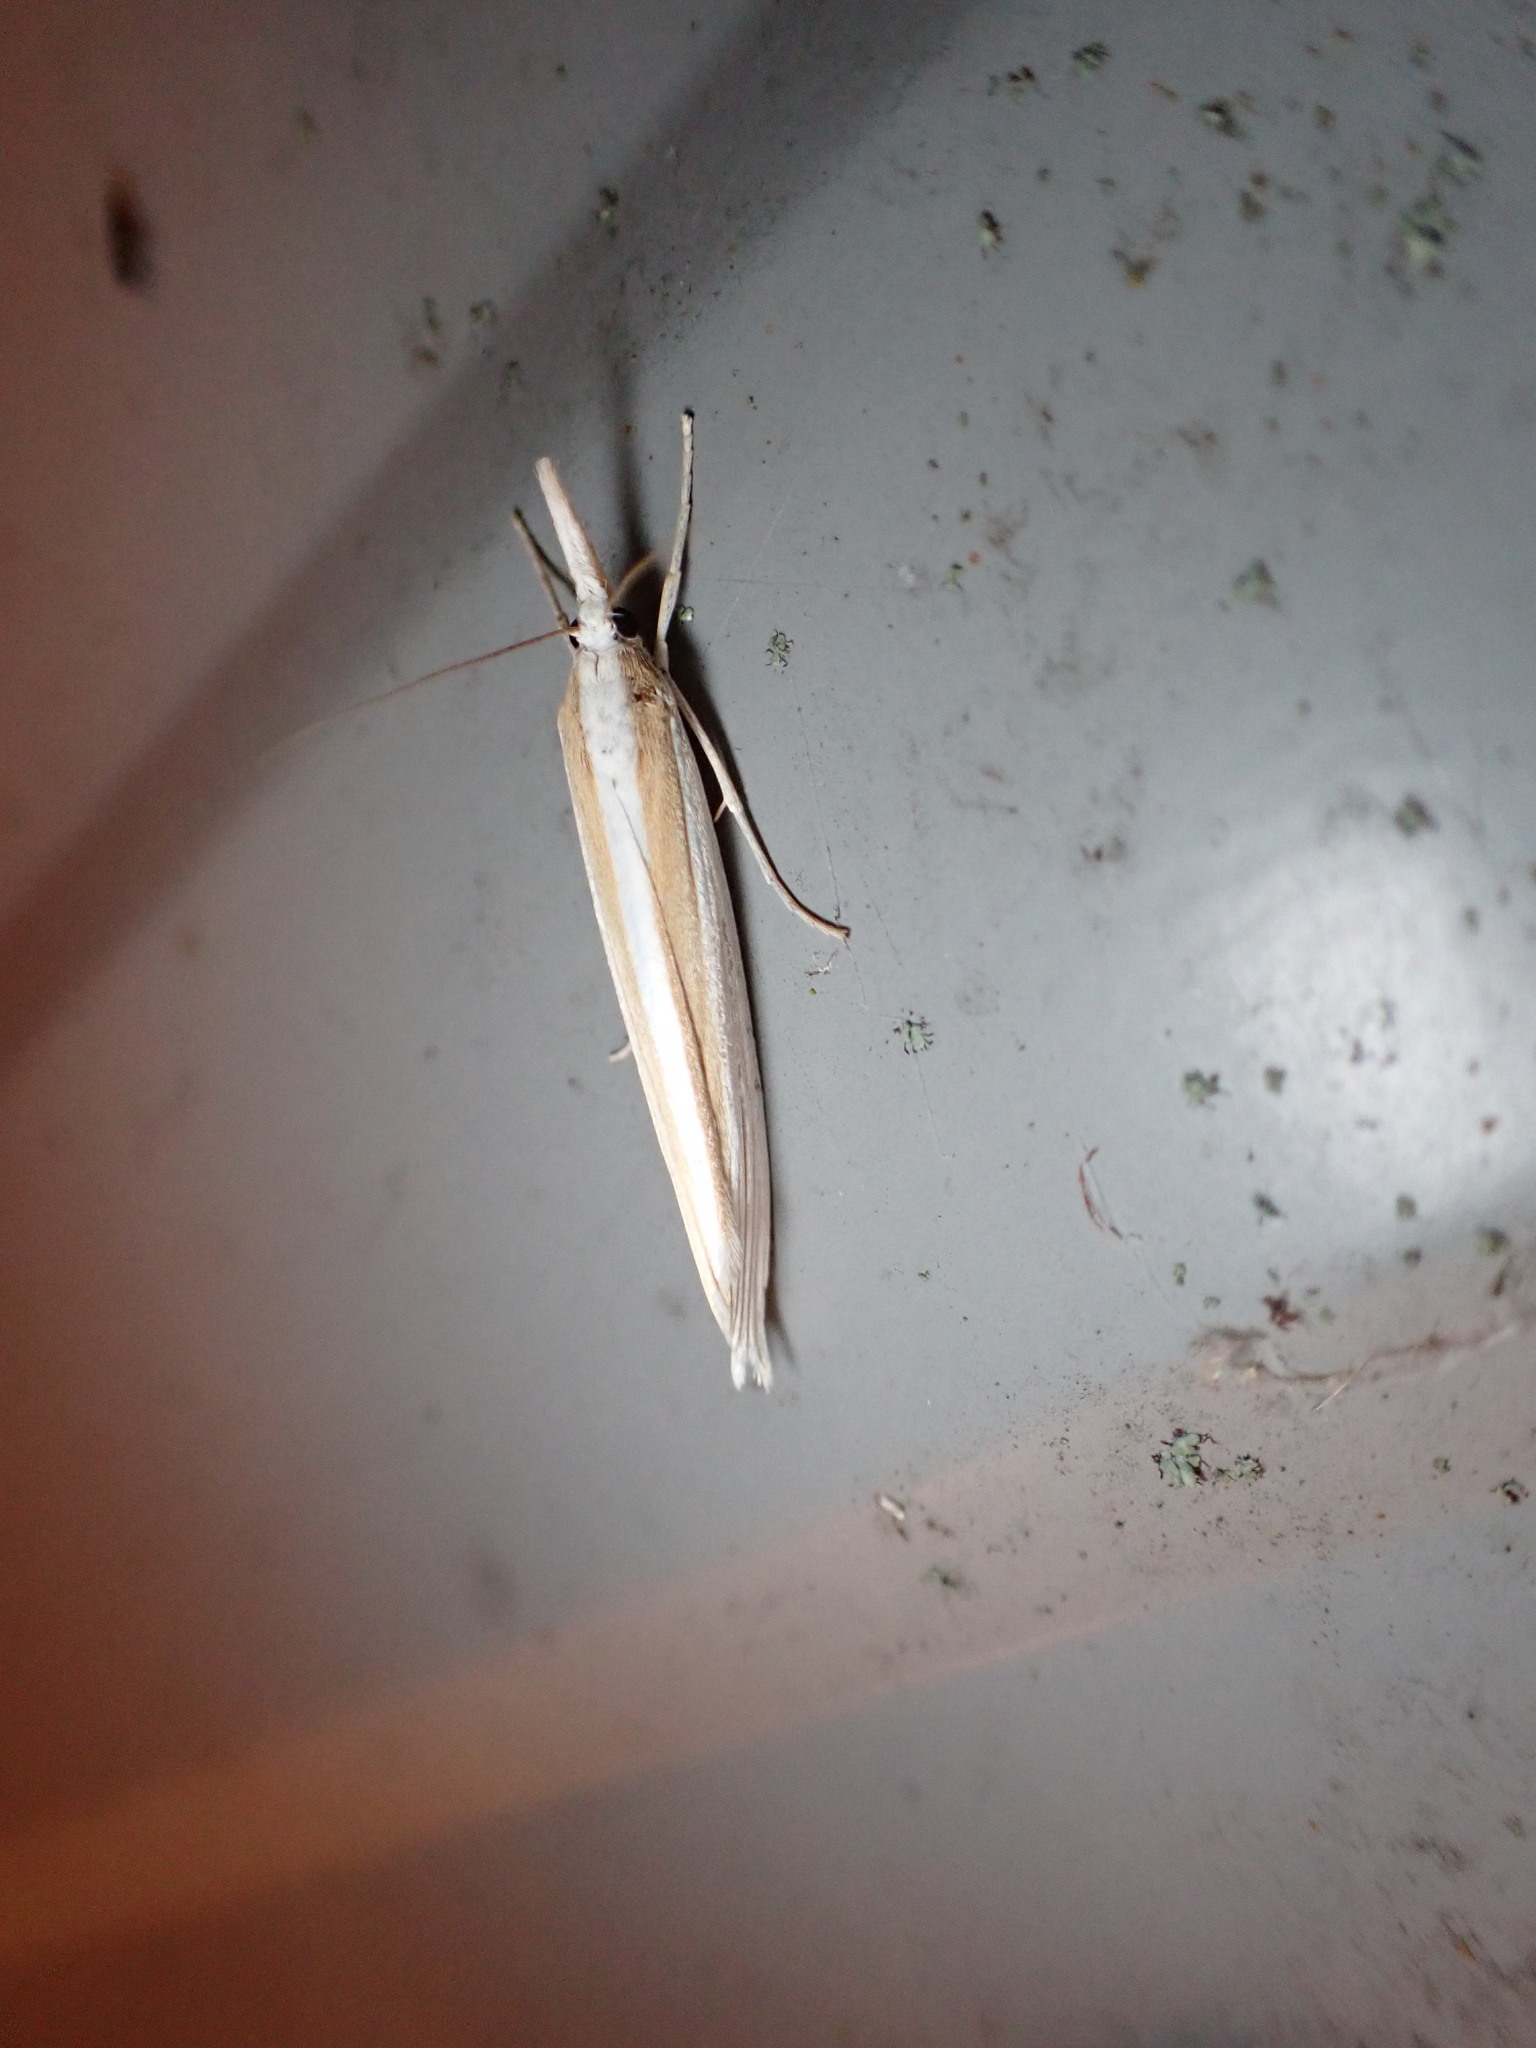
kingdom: Animalia
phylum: Arthropoda
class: Insecta
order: Lepidoptera
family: Crambidae
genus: Orocrambus
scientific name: Orocrambus angustipennis
